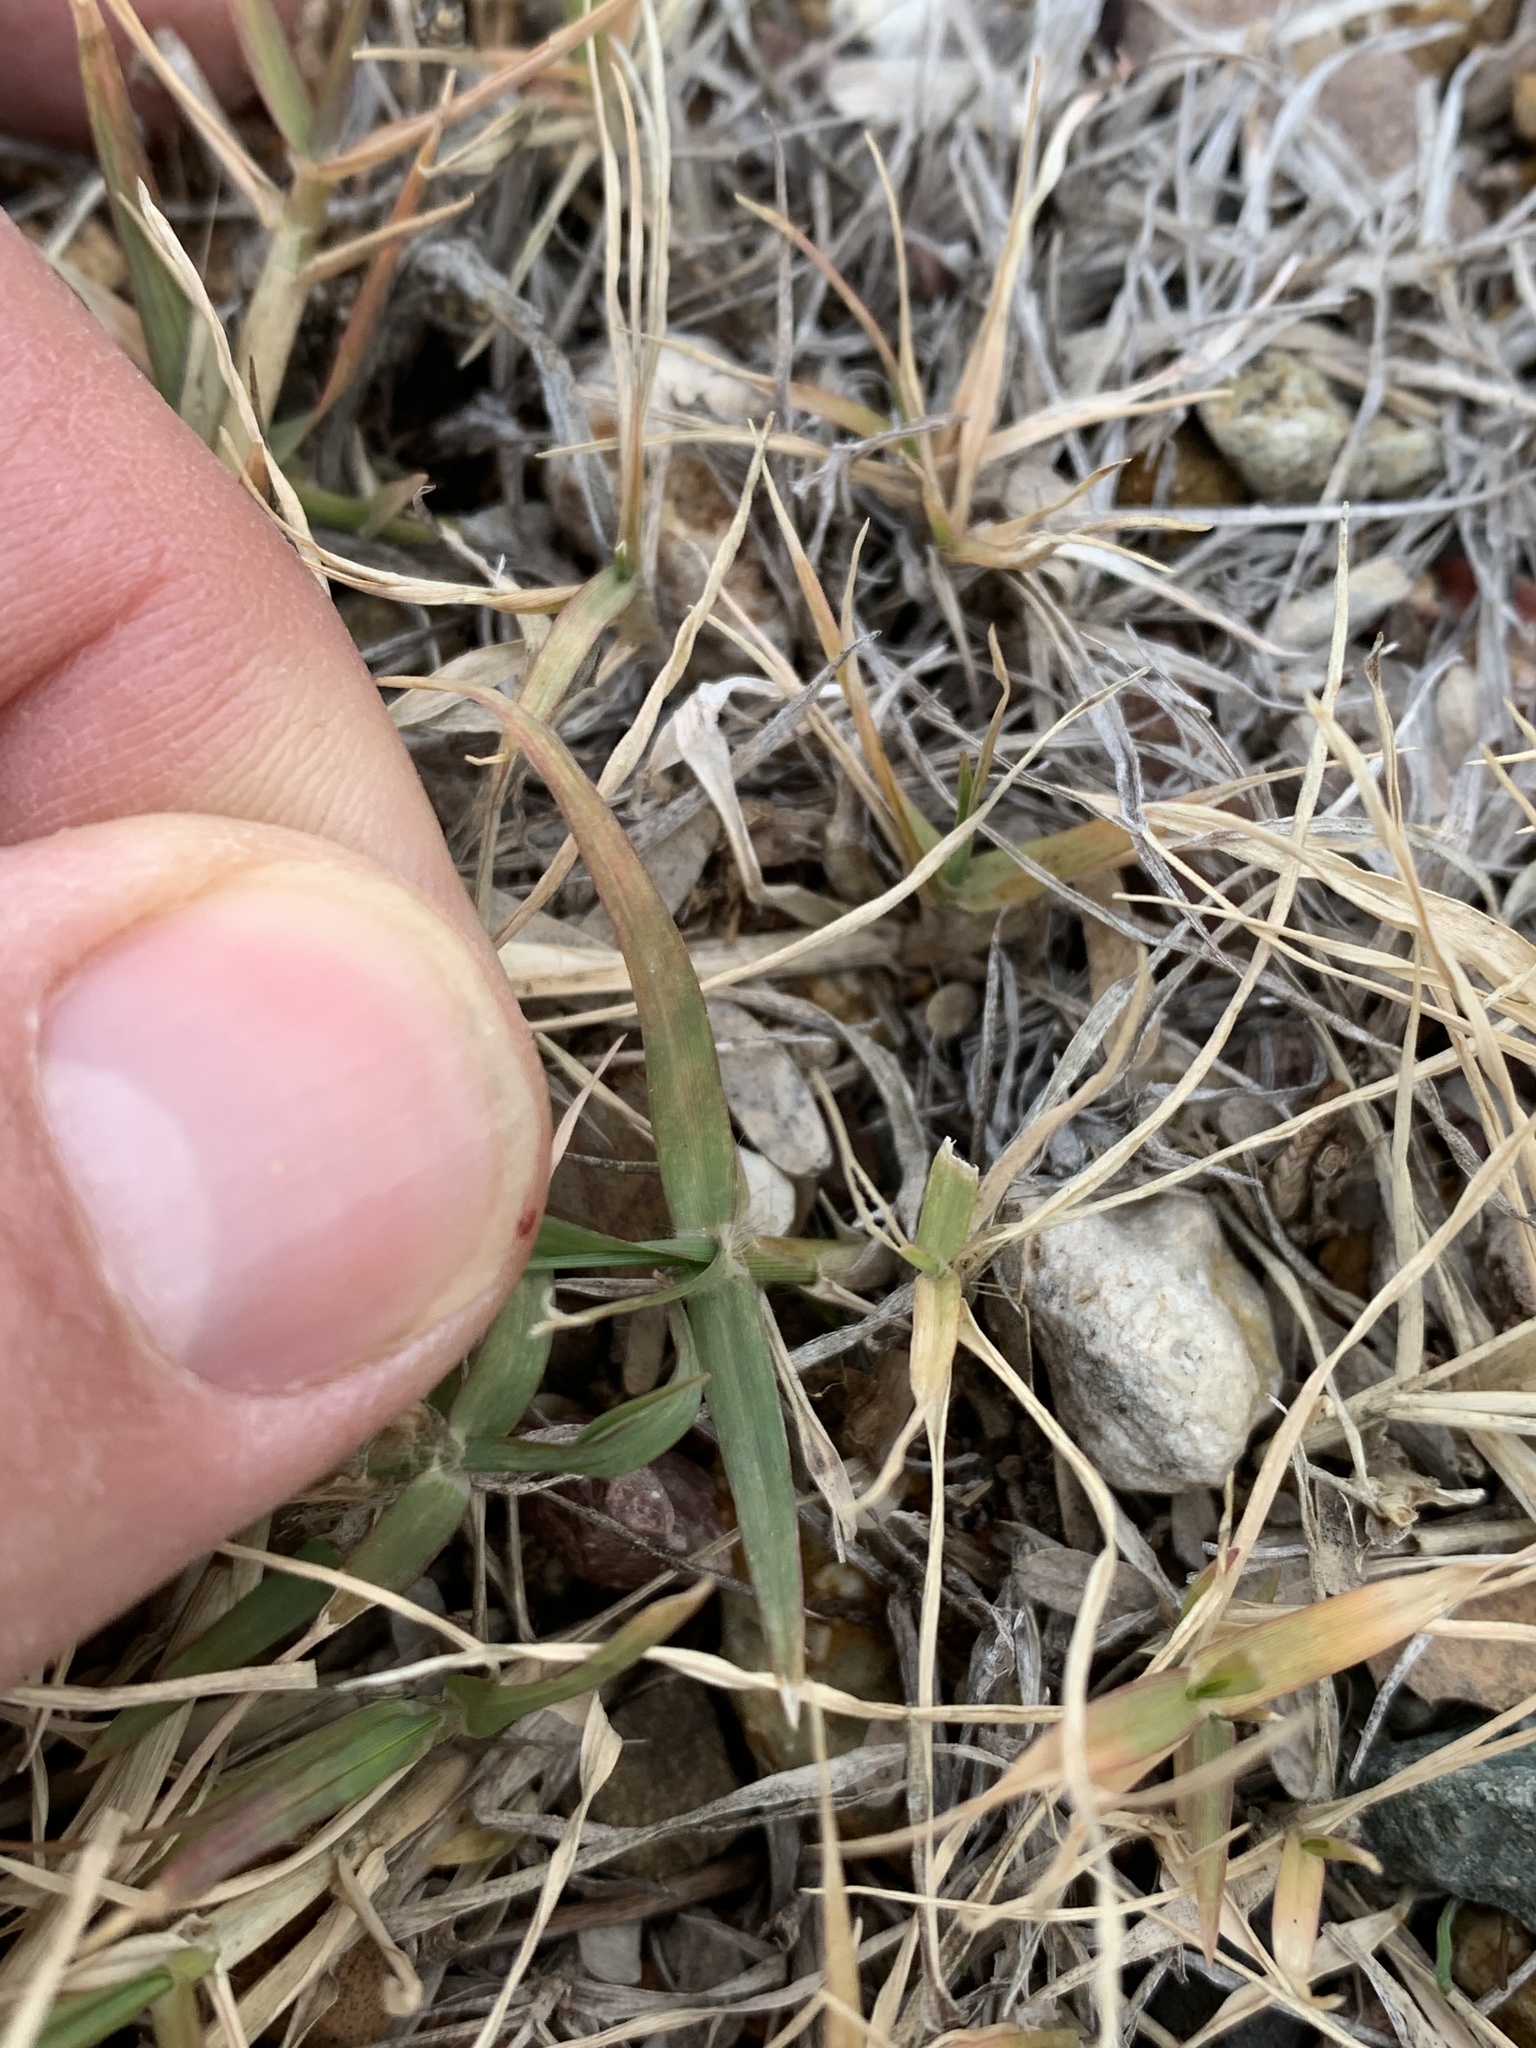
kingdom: Plantae
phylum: Tracheophyta
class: Liliopsida
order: Poales
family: Poaceae
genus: Cynodon
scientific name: Cynodon dactylon
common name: Bermuda grass
